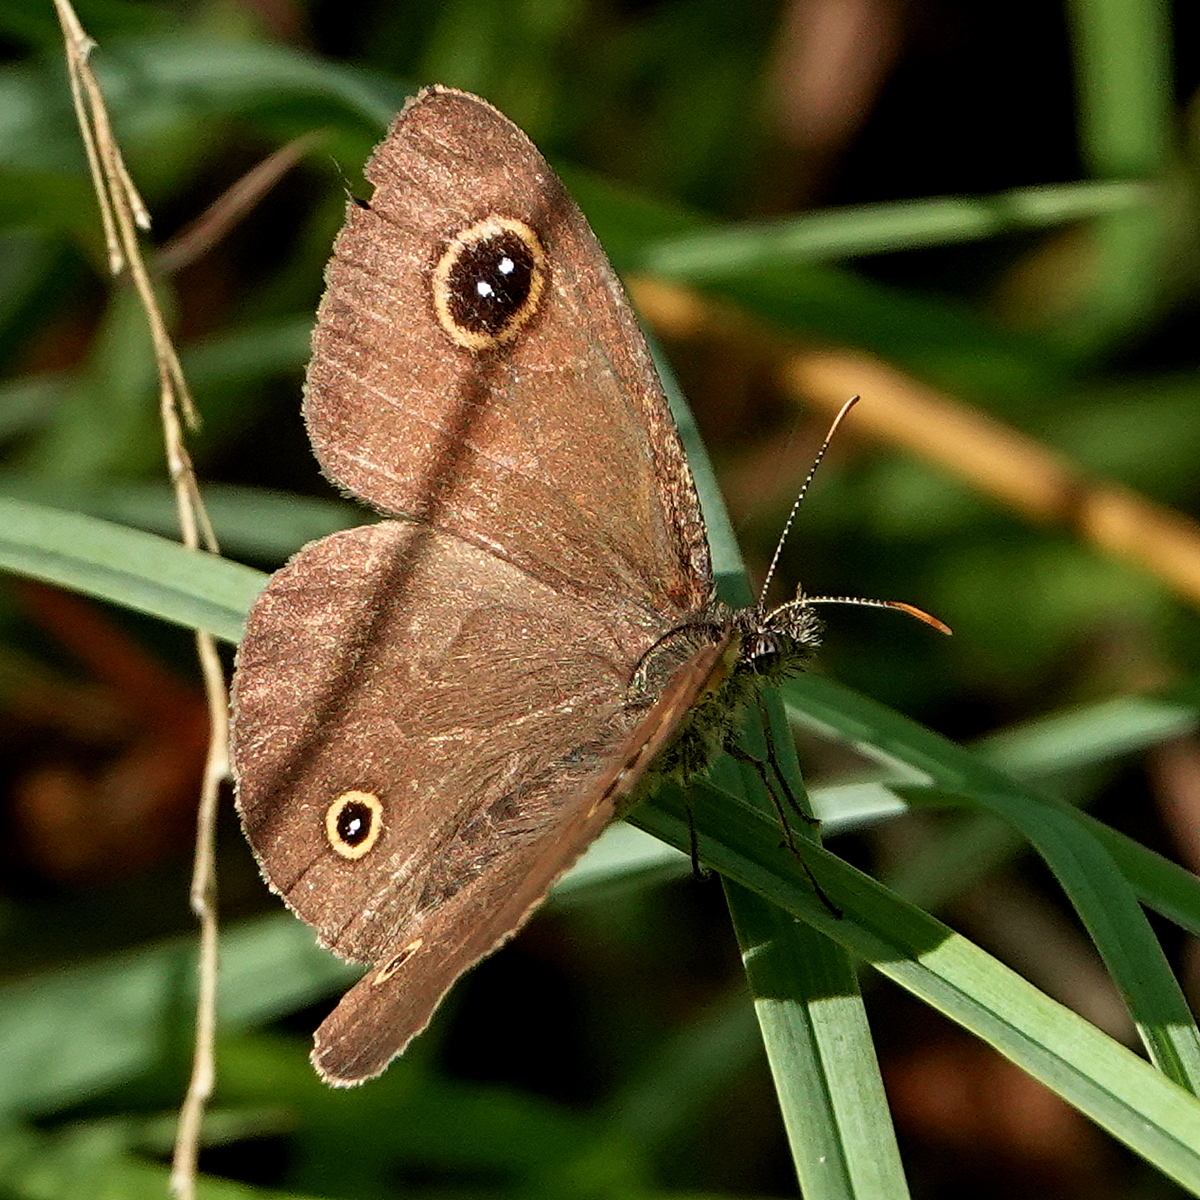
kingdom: Animalia
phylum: Arthropoda
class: Insecta
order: Lepidoptera
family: Nymphalidae
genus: Ypthima
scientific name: Ypthima arctous
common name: Dusky knight
